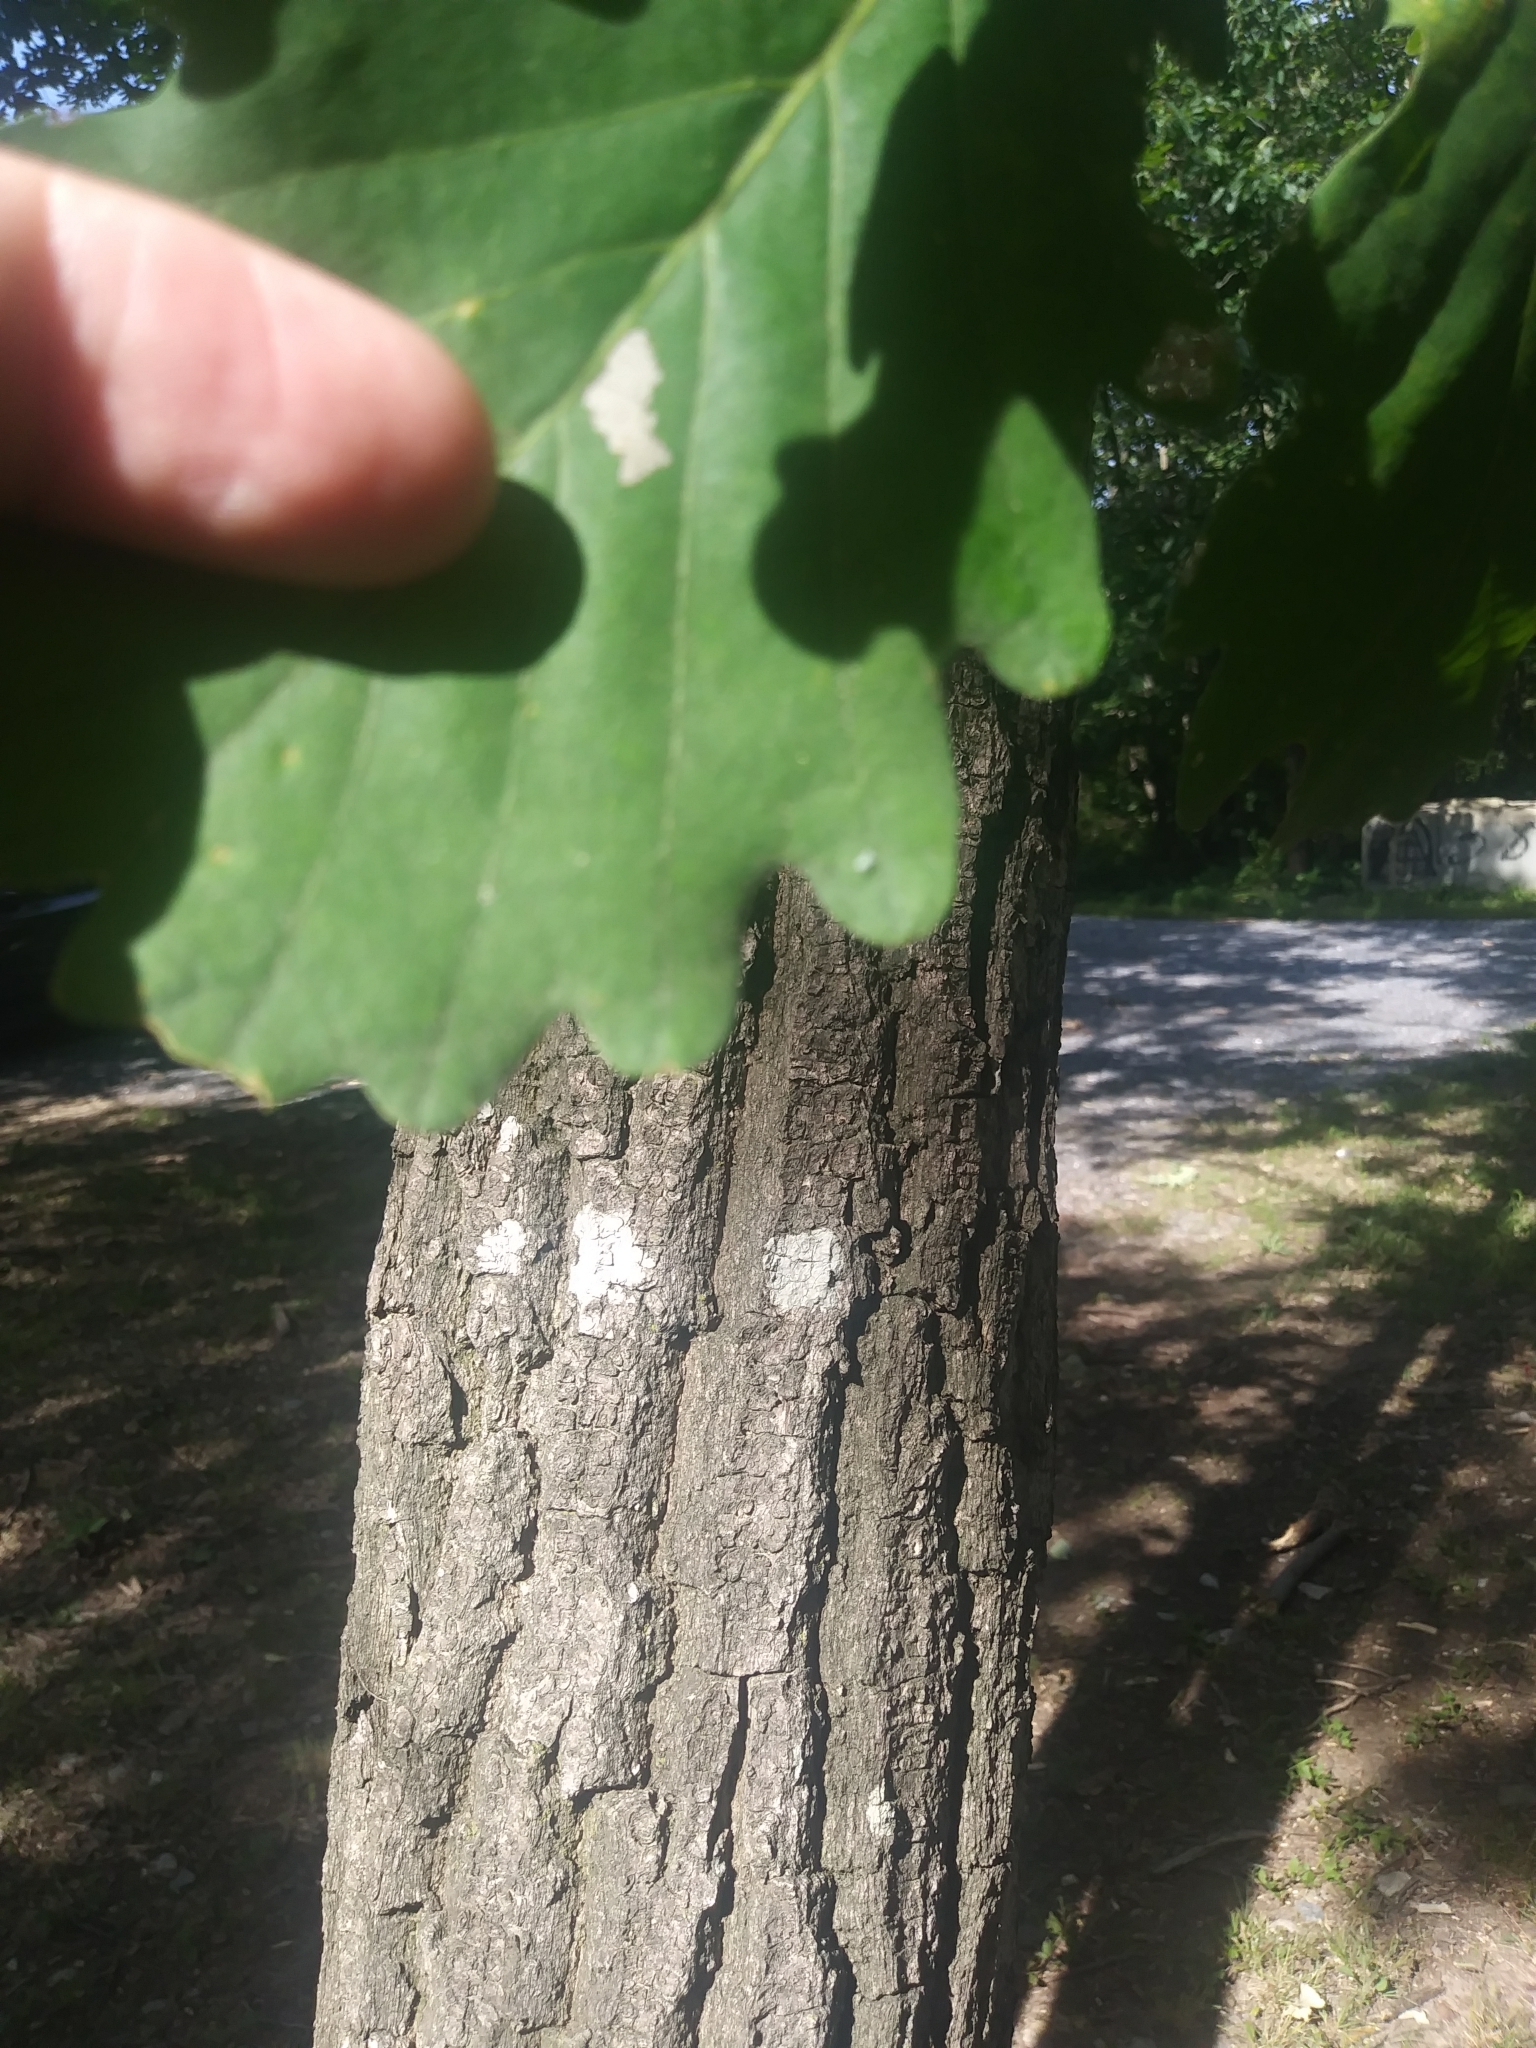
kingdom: Plantae
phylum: Tracheophyta
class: Magnoliopsida
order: Fagales
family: Fagaceae
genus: Quercus
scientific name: Quercus montana
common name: Chestnut oak
